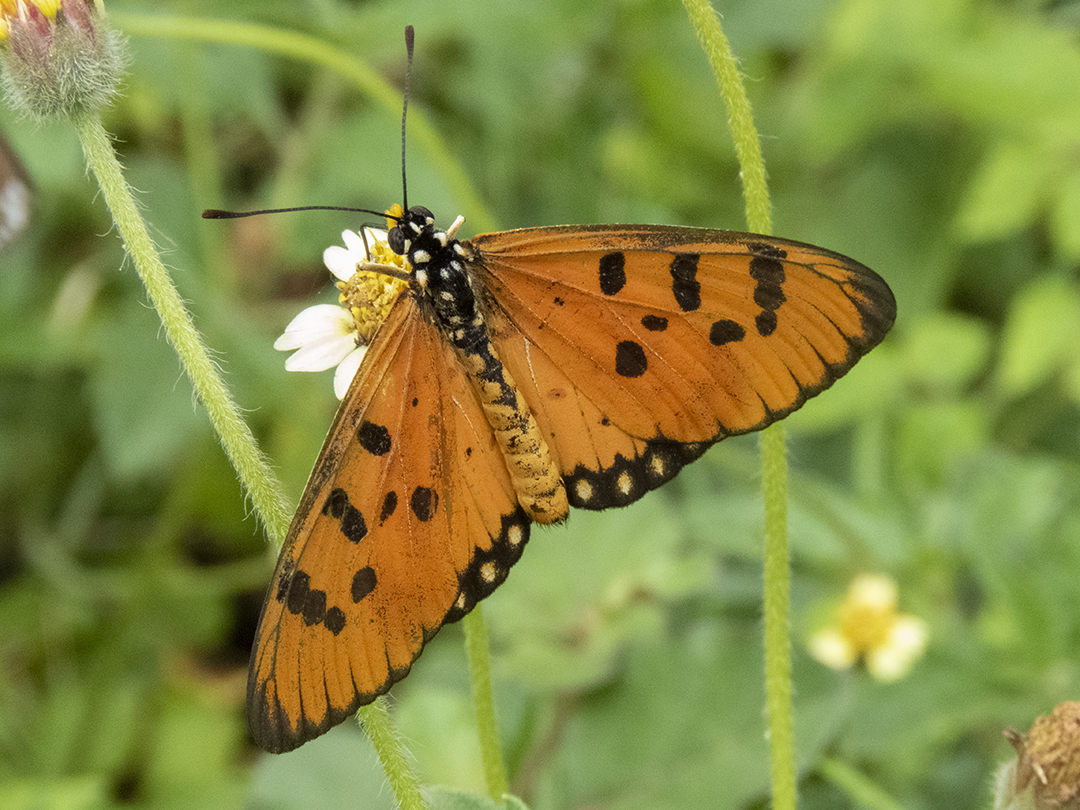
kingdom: Animalia
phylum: Arthropoda
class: Insecta
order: Lepidoptera
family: Nymphalidae
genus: Acraea
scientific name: Acraea terpsicore
